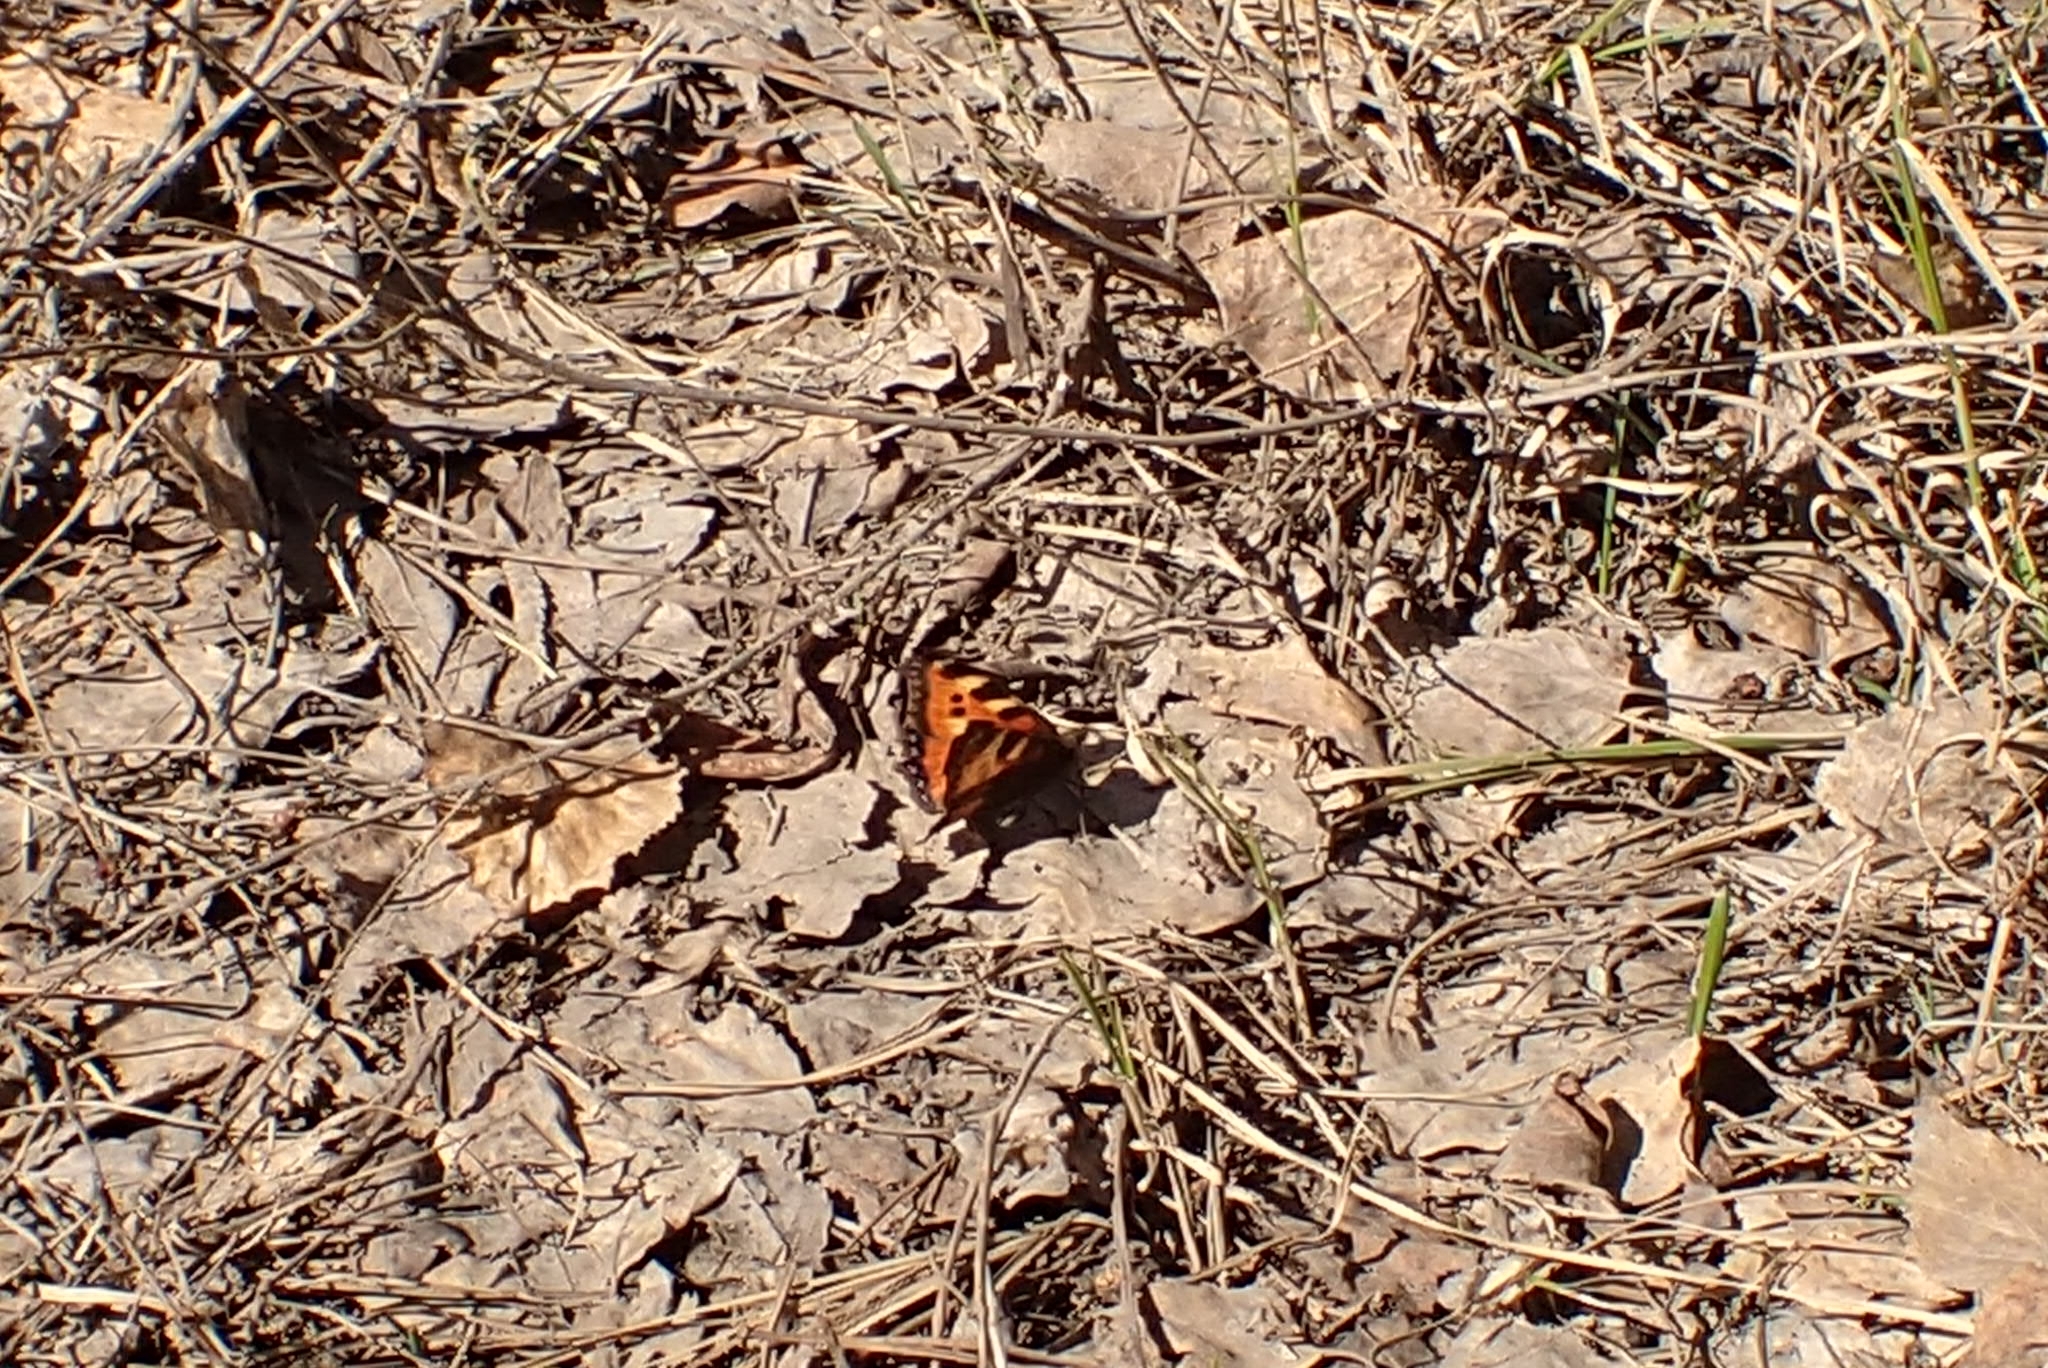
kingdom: Animalia
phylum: Arthropoda
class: Insecta
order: Lepidoptera
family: Nymphalidae
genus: Aglais
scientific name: Aglais urticae
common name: Small tortoiseshell
